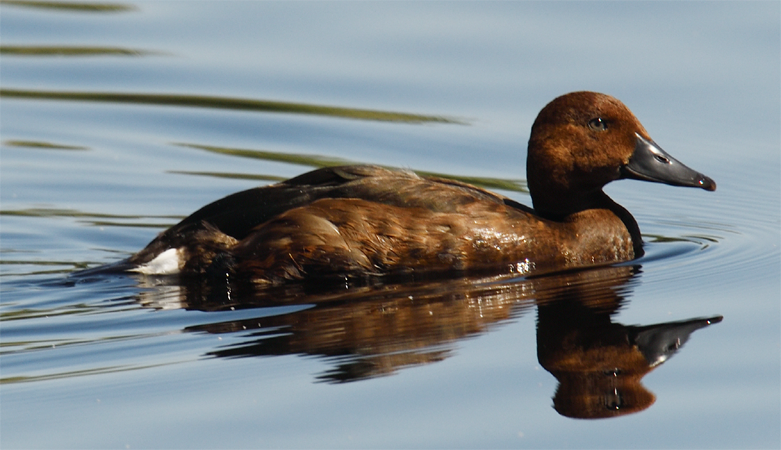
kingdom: Animalia
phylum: Chordata
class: Aves
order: Anseriformes
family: Anatidae
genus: Aythya
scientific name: Aythya nyroca
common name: Ferruginous duck
